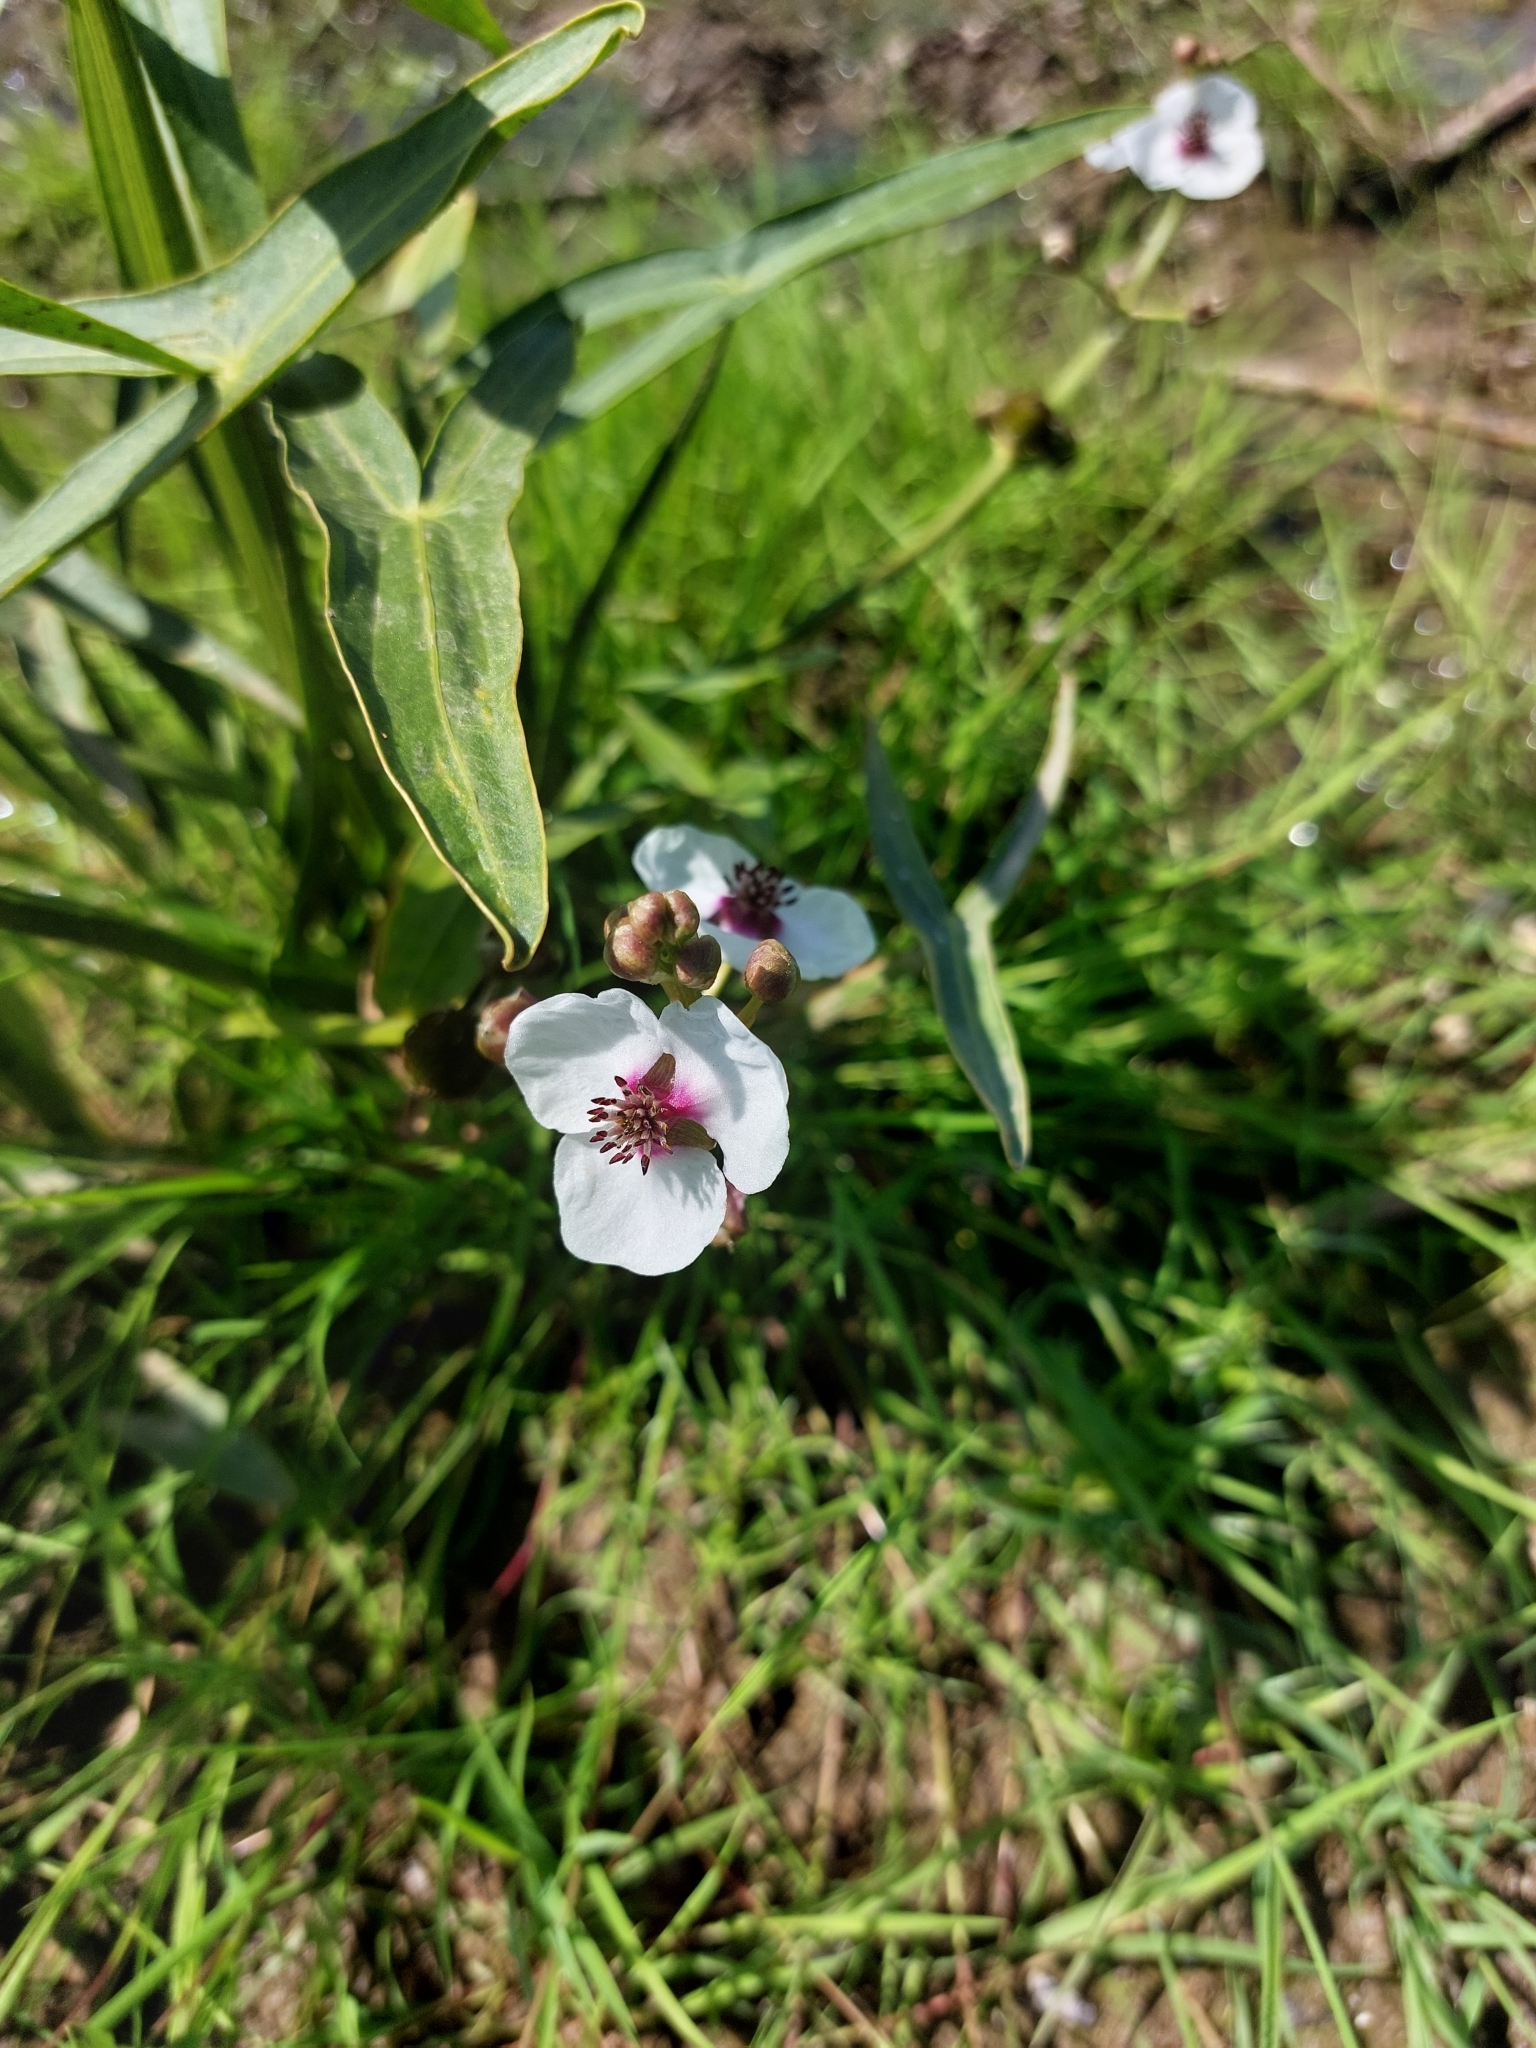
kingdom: Plantae
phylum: Tracheophyta
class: Liliopsida
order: Alismatales
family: Alismataceae
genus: Sagittaria
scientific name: Sagittaria sagittifolia
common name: Arrowhead
